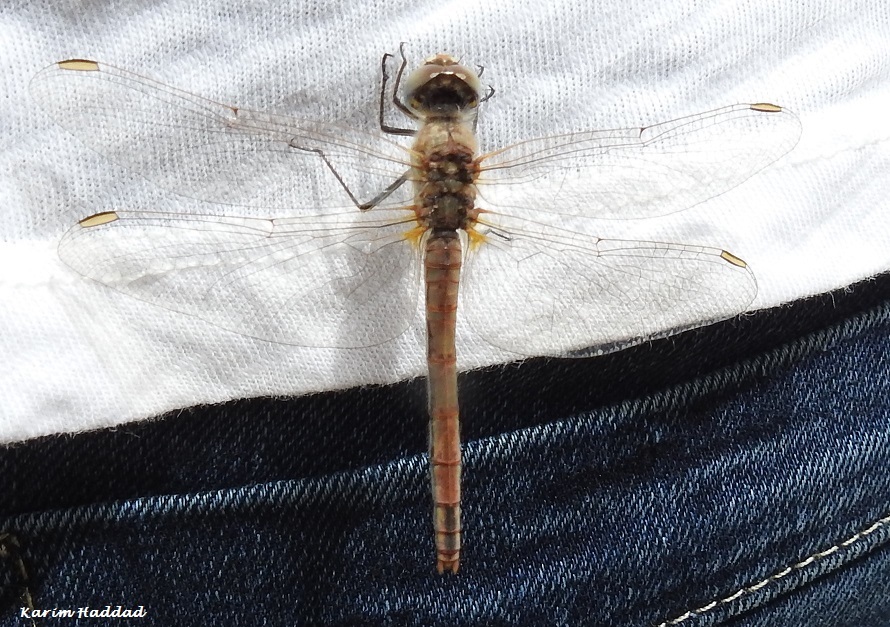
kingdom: Animalia
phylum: Arthropoda
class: Insecta
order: Odonata
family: Libellulidae
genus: Sympetrum
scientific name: Sympetrum fonscolombii
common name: Red-veined darter
